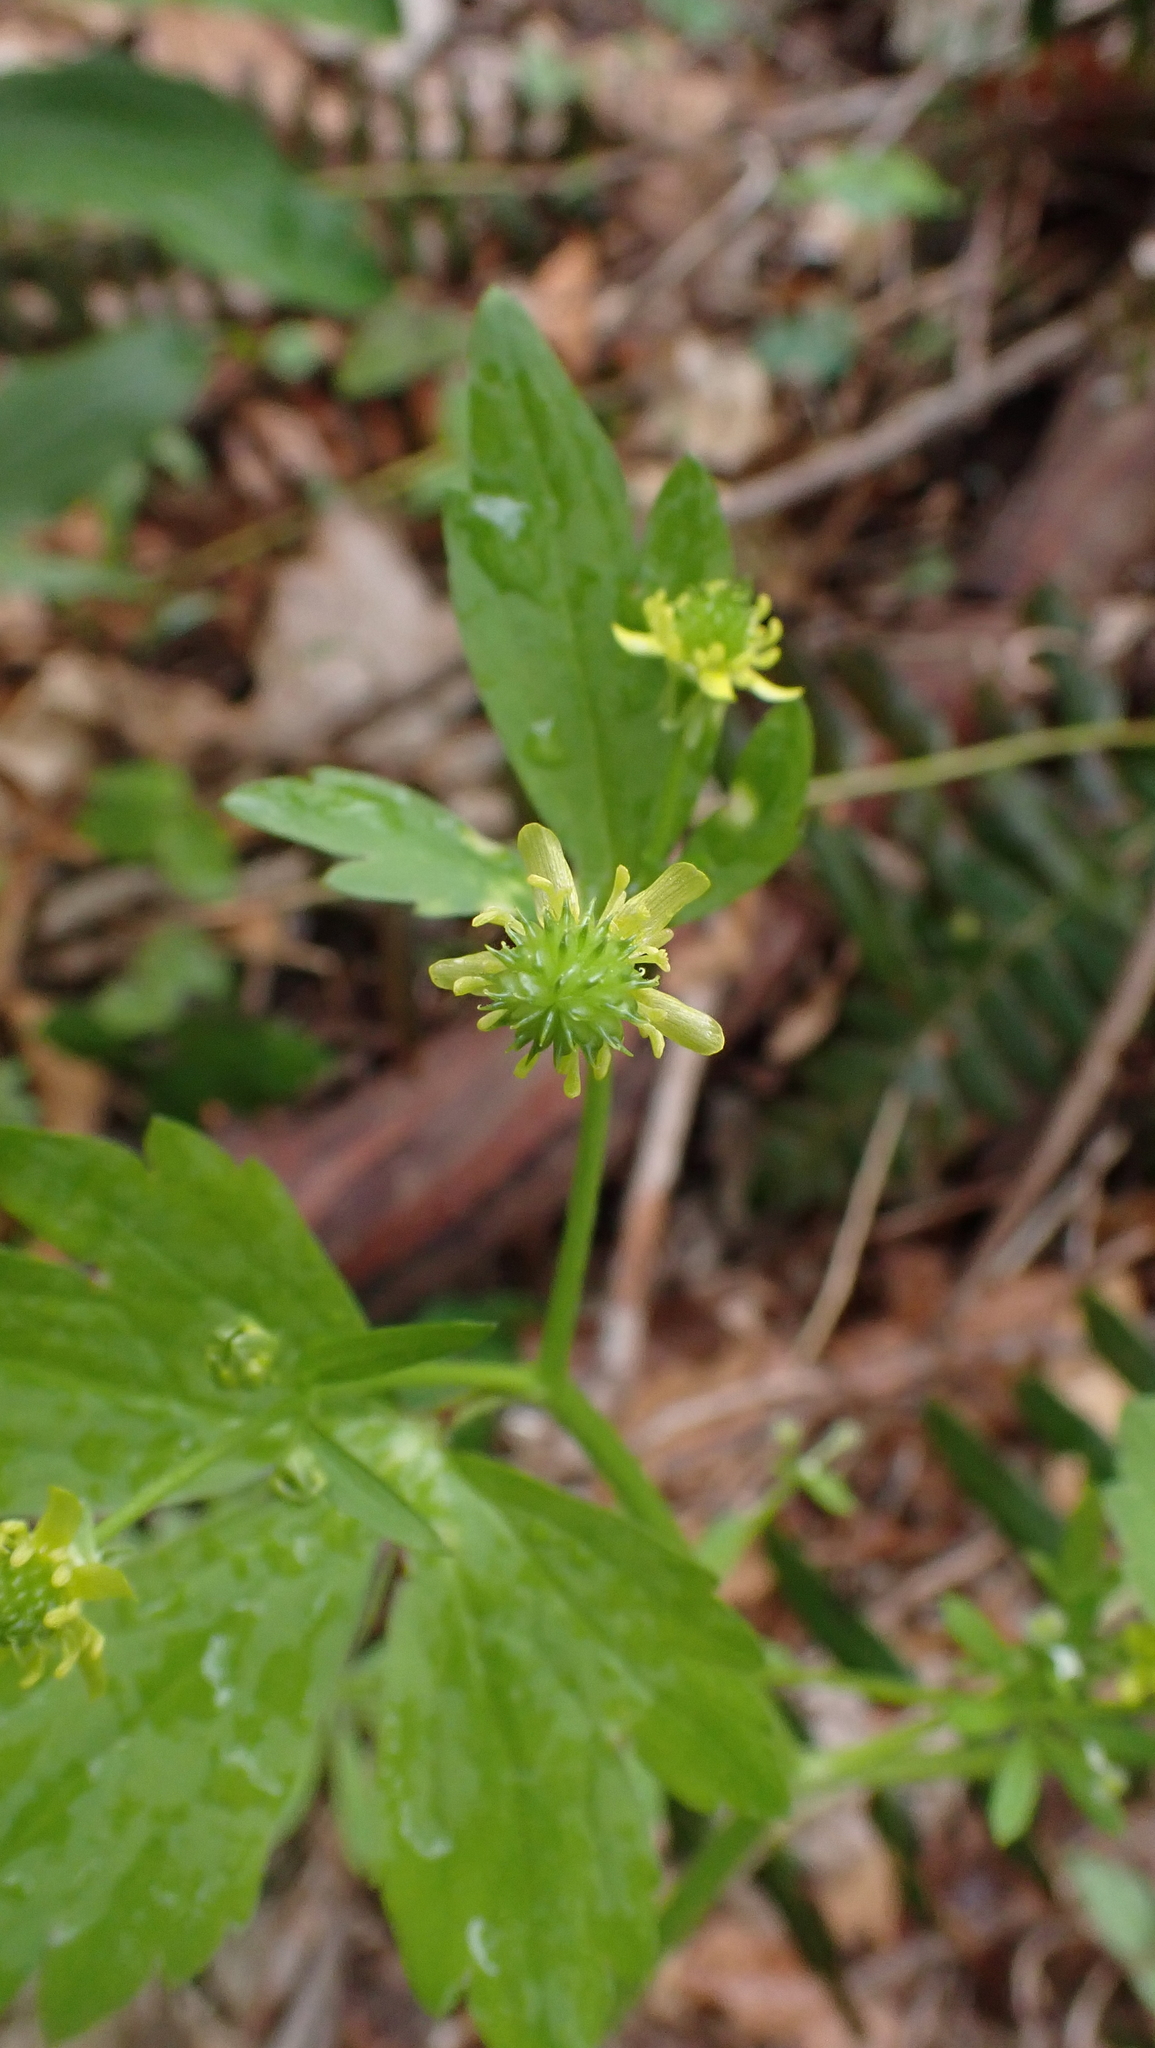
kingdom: Plantae
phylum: Tracheophyta
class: Magnoliopsida
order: Ranunculales
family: Ranunculaceae
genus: Ranunculus
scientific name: Ranunculus recurvatus
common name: Blisterwort
